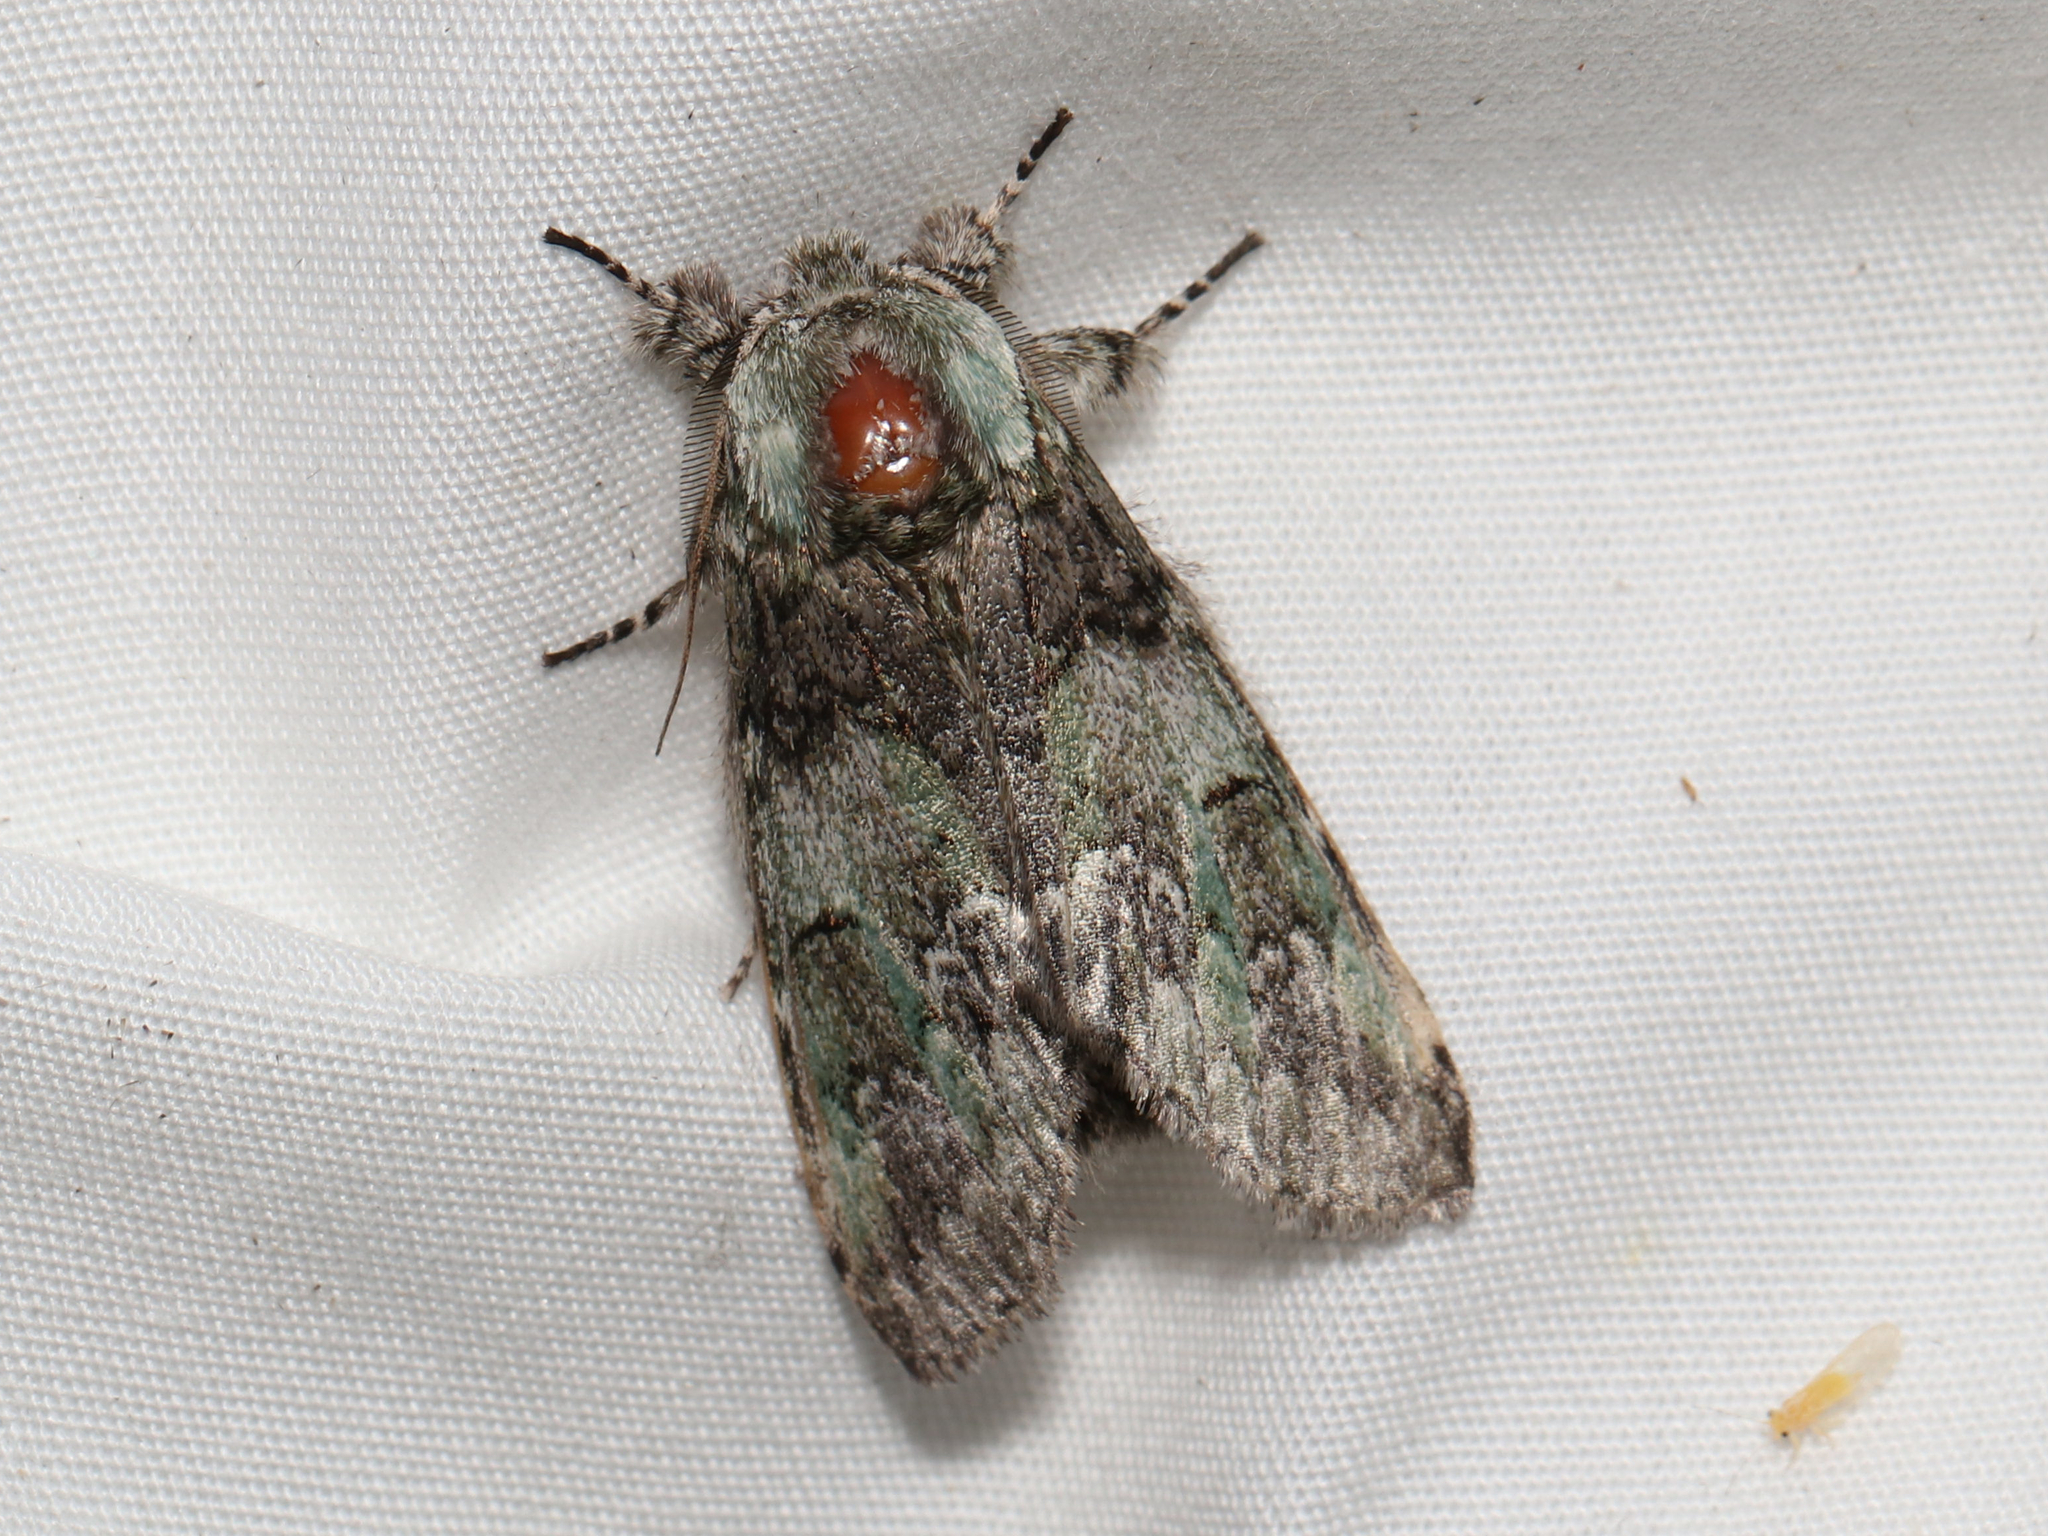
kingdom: Animalia
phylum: Arthropoda
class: Insecta
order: Lepidoptera
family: Notodontidae
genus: Macrurocampa
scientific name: Macrurocampa marthesia
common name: Mottled prominent
